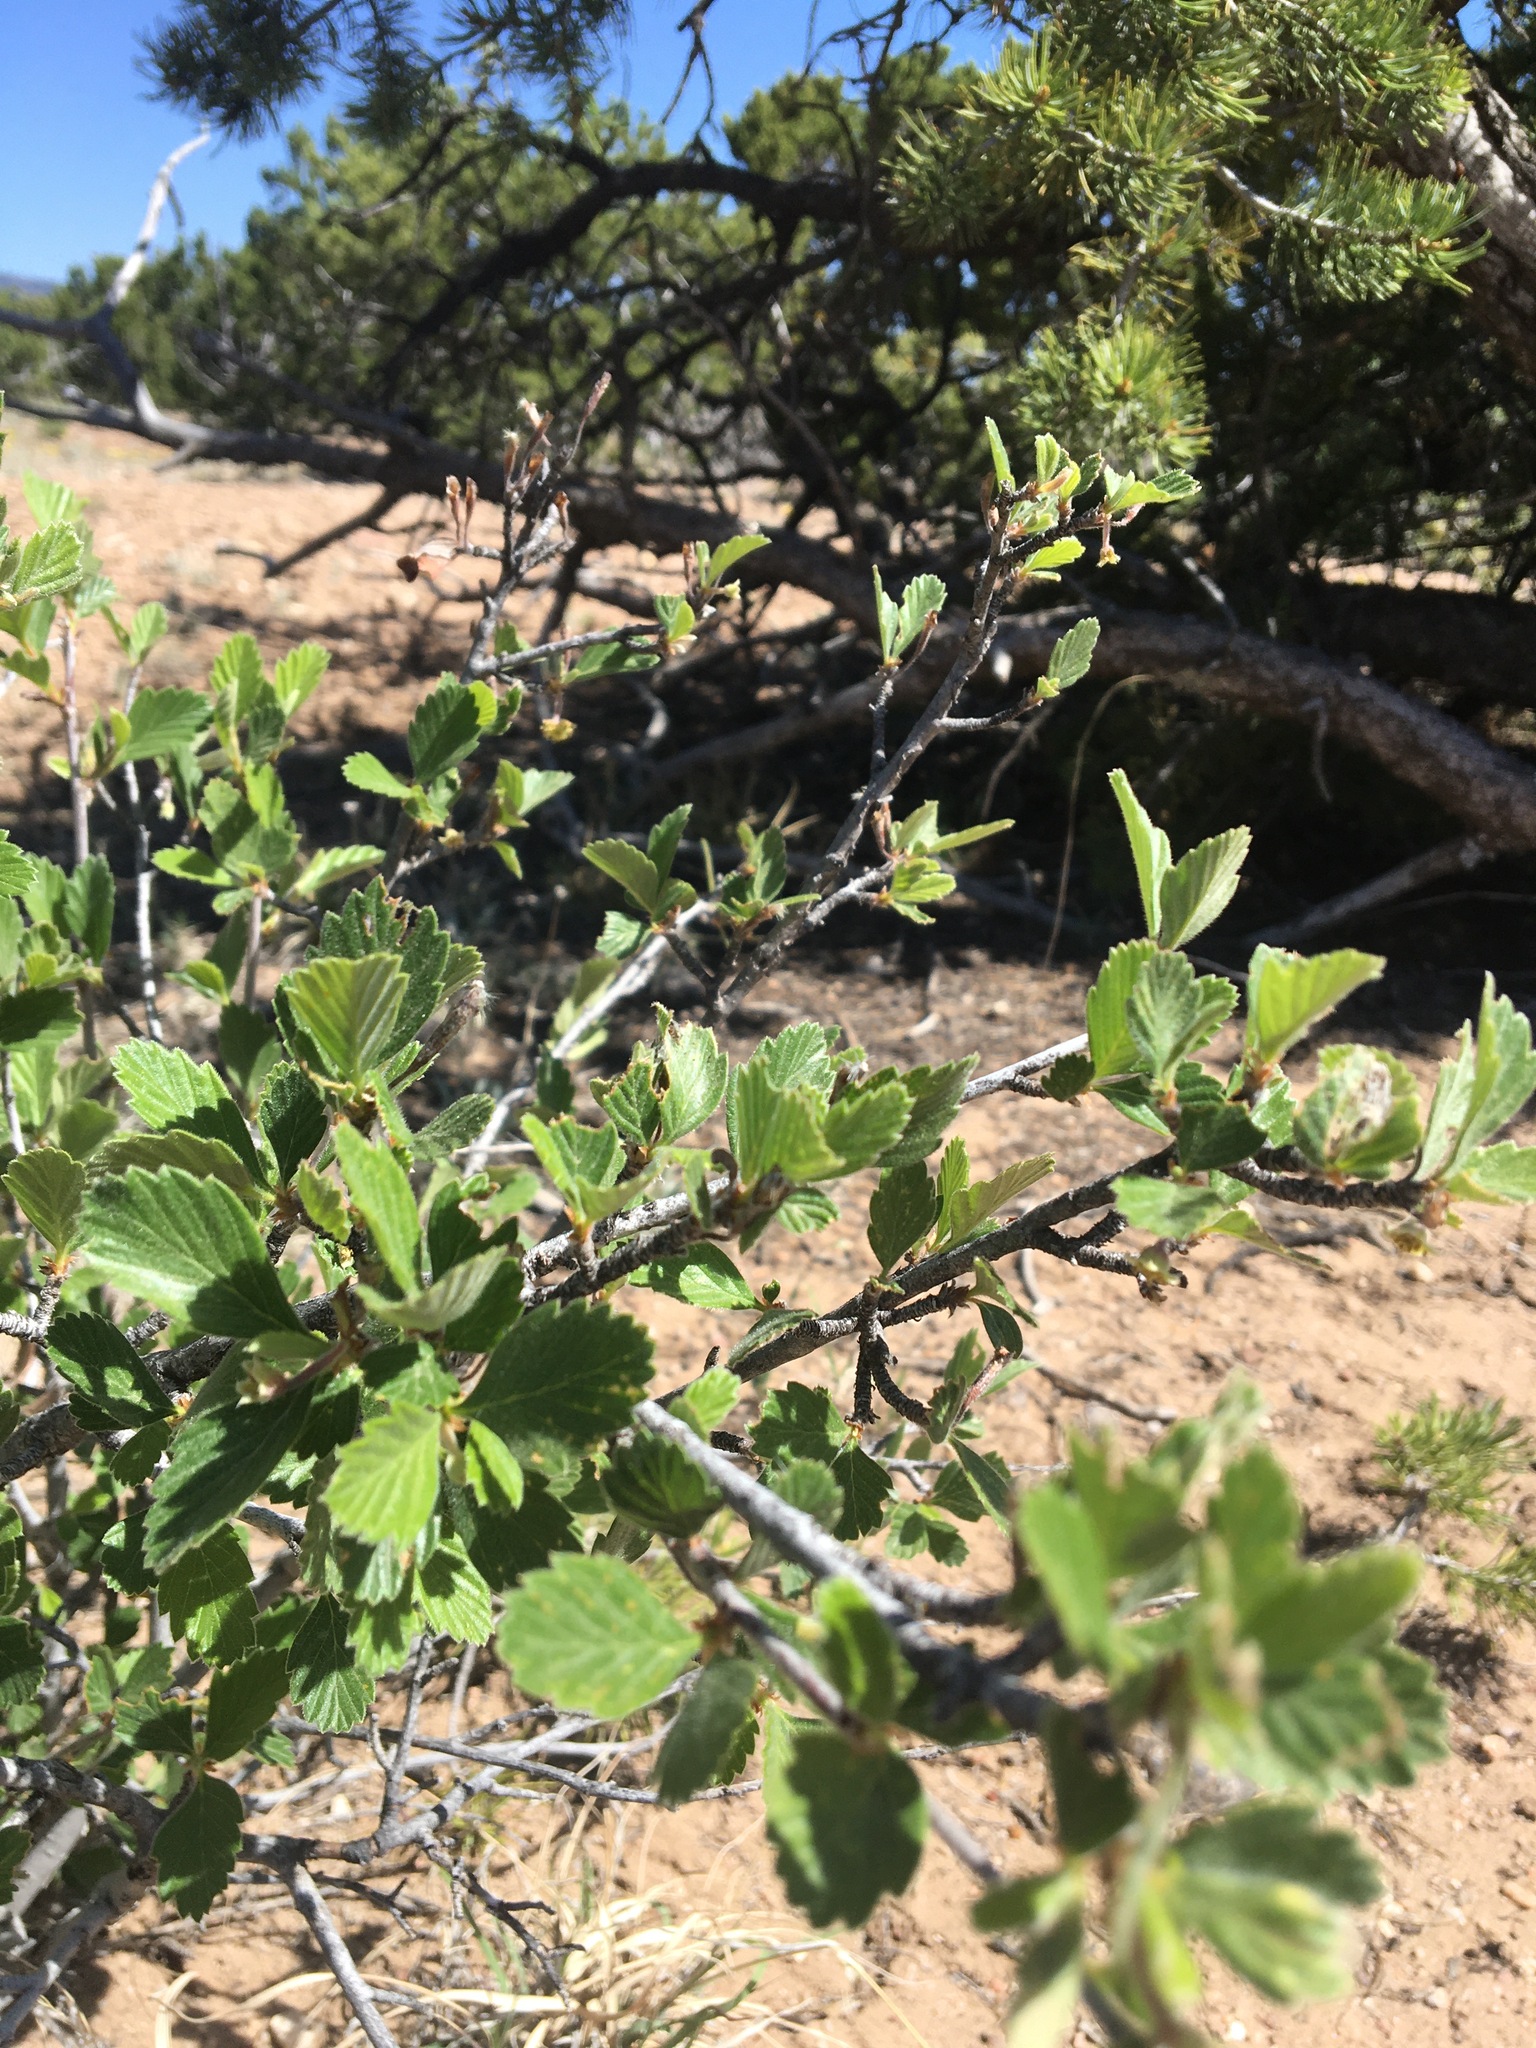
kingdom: Plantae
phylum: Tracheophyta
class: Magnoliopsida
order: Rosales
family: Rosaceae
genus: Cercocarpus
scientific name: Cercocarpus montanus
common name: Alder-leaf cercocarpus
